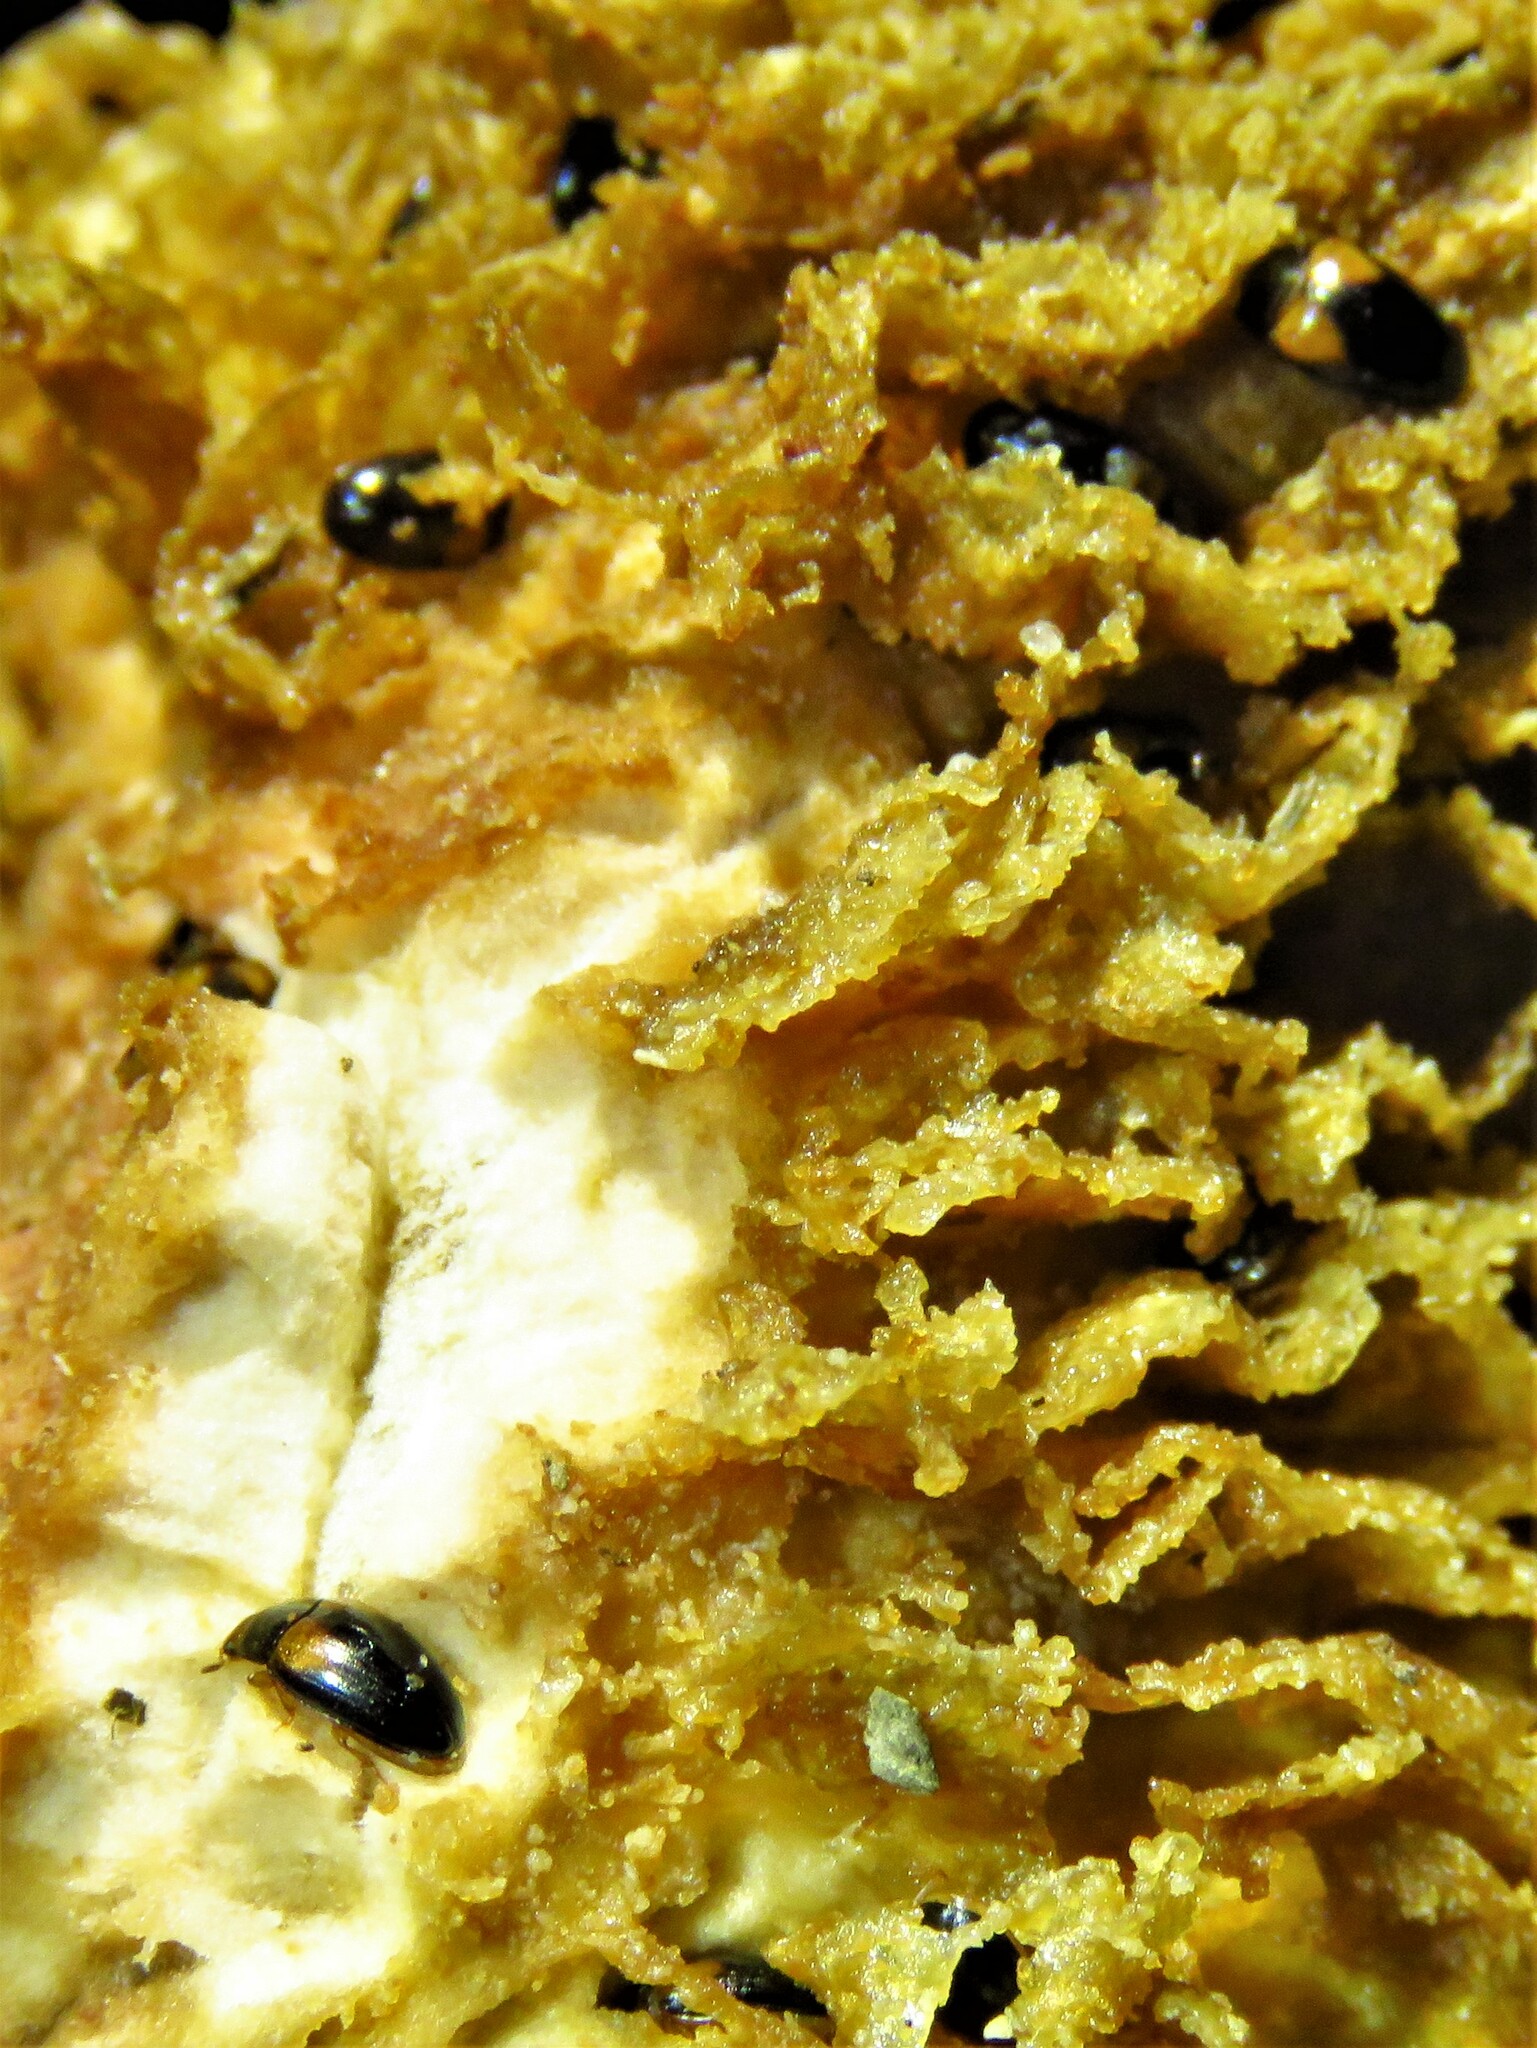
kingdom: Animalia
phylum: Arthropoda
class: Insecta
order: Coleoptera
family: Erotylidae
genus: Tritoma
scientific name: Tritoma biguttata
